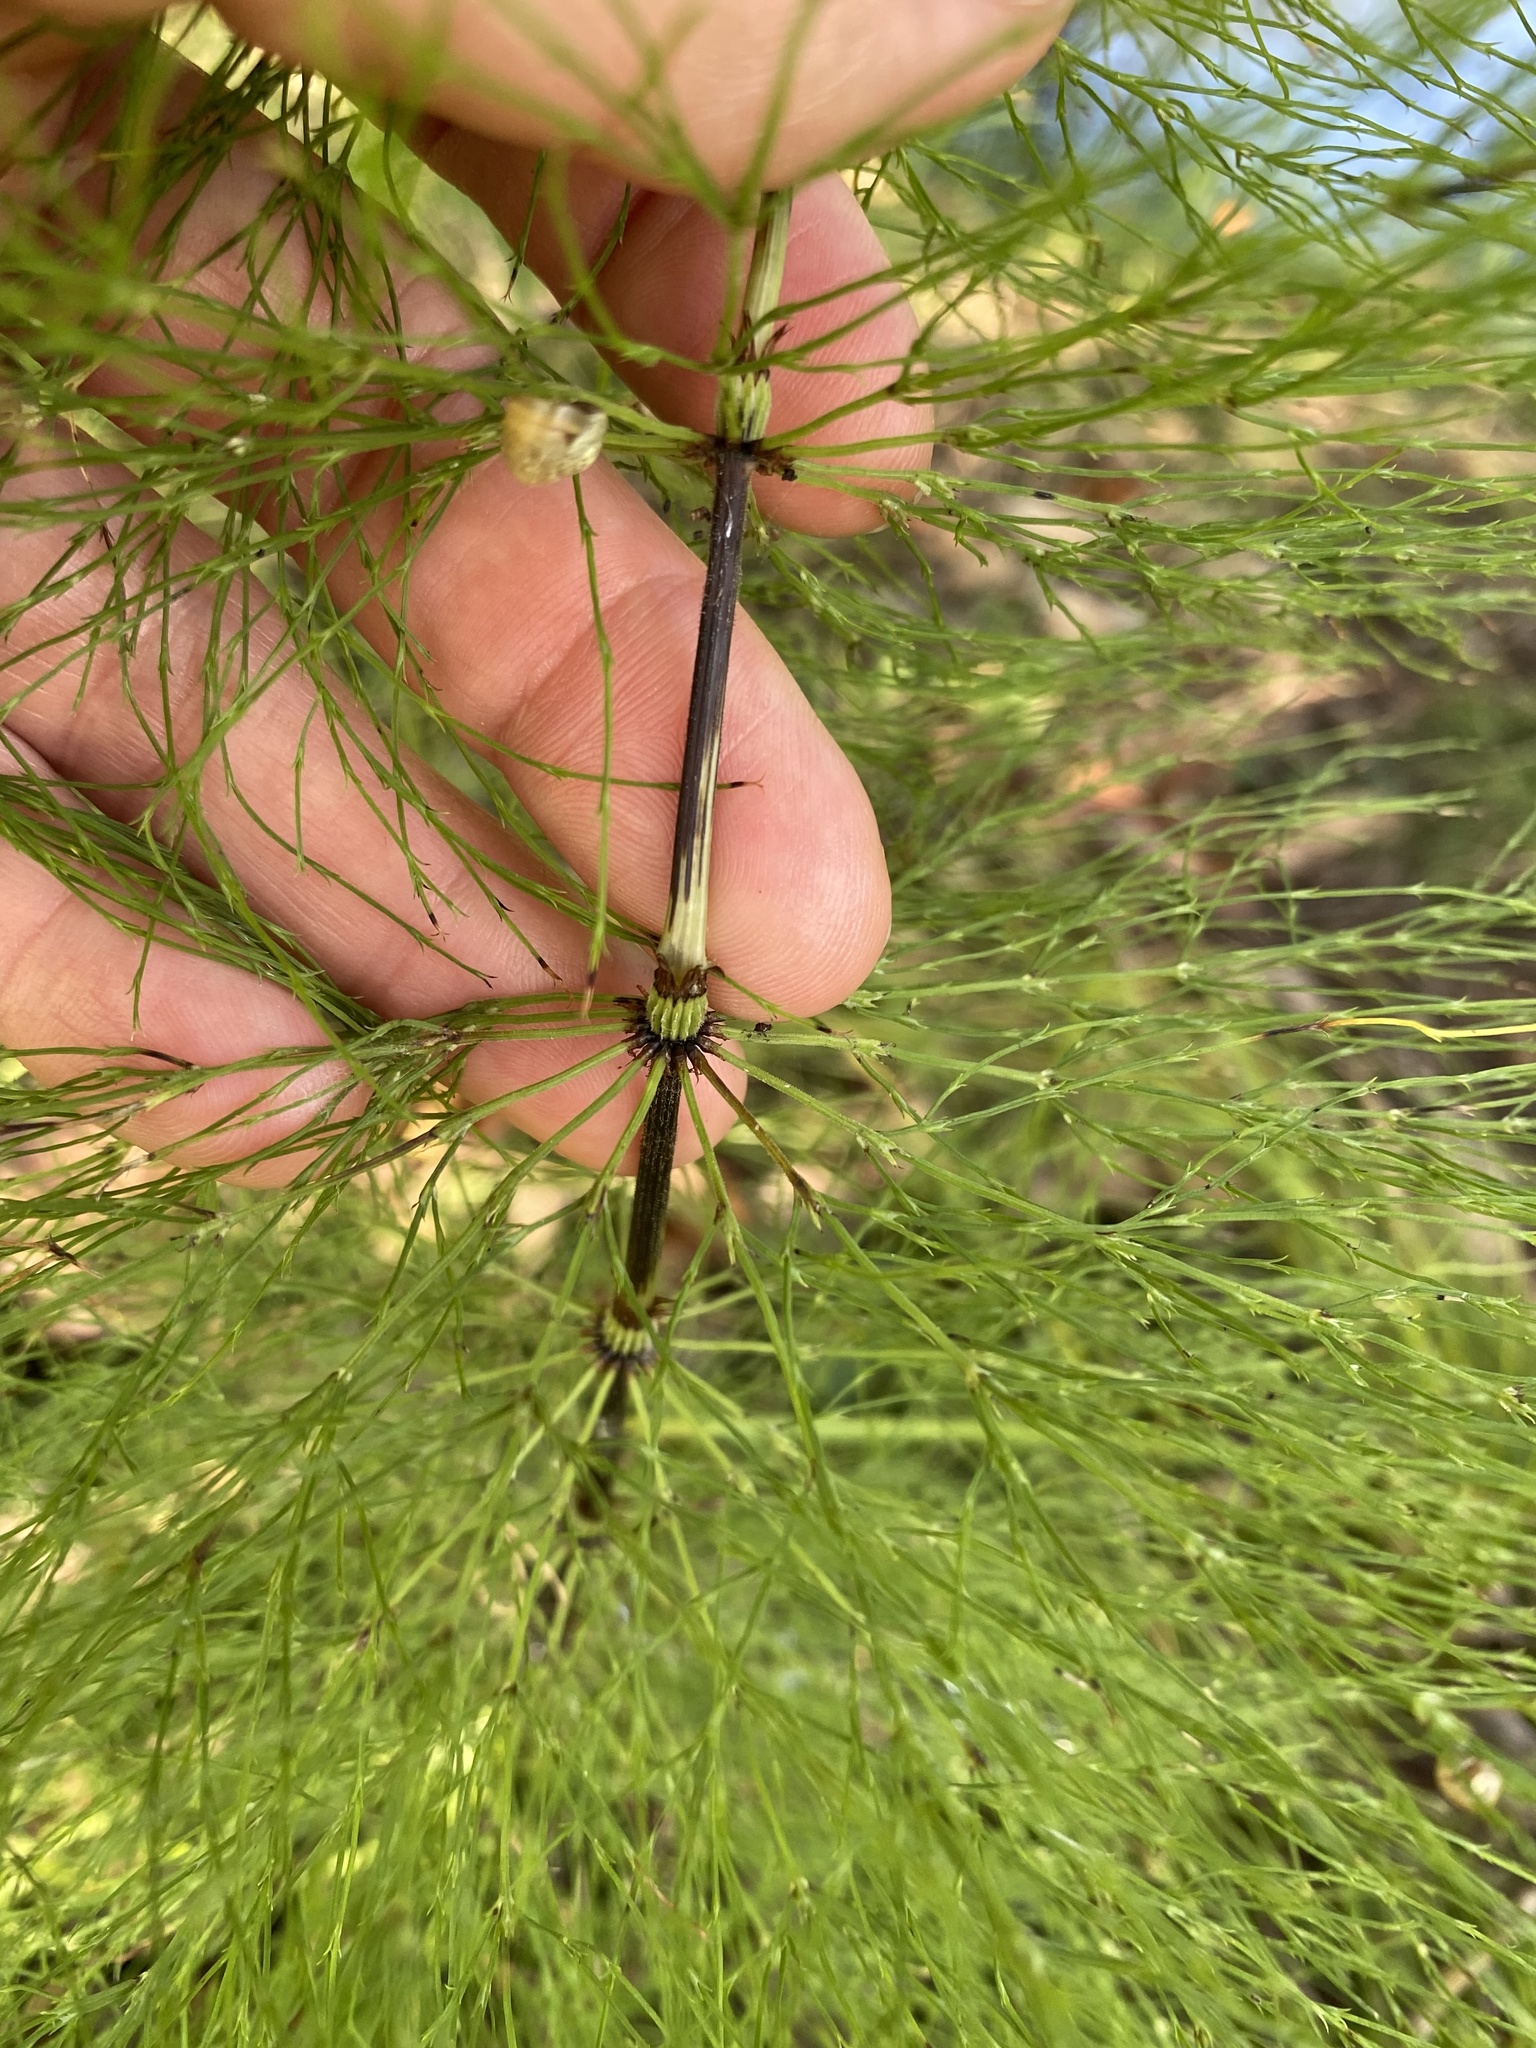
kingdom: Plantae
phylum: Tracheophyta
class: Polypodiopsida
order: Equisetales
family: Equisetaceae
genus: Equisetum
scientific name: Equisetum sylvaticum
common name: Wood horsetail
